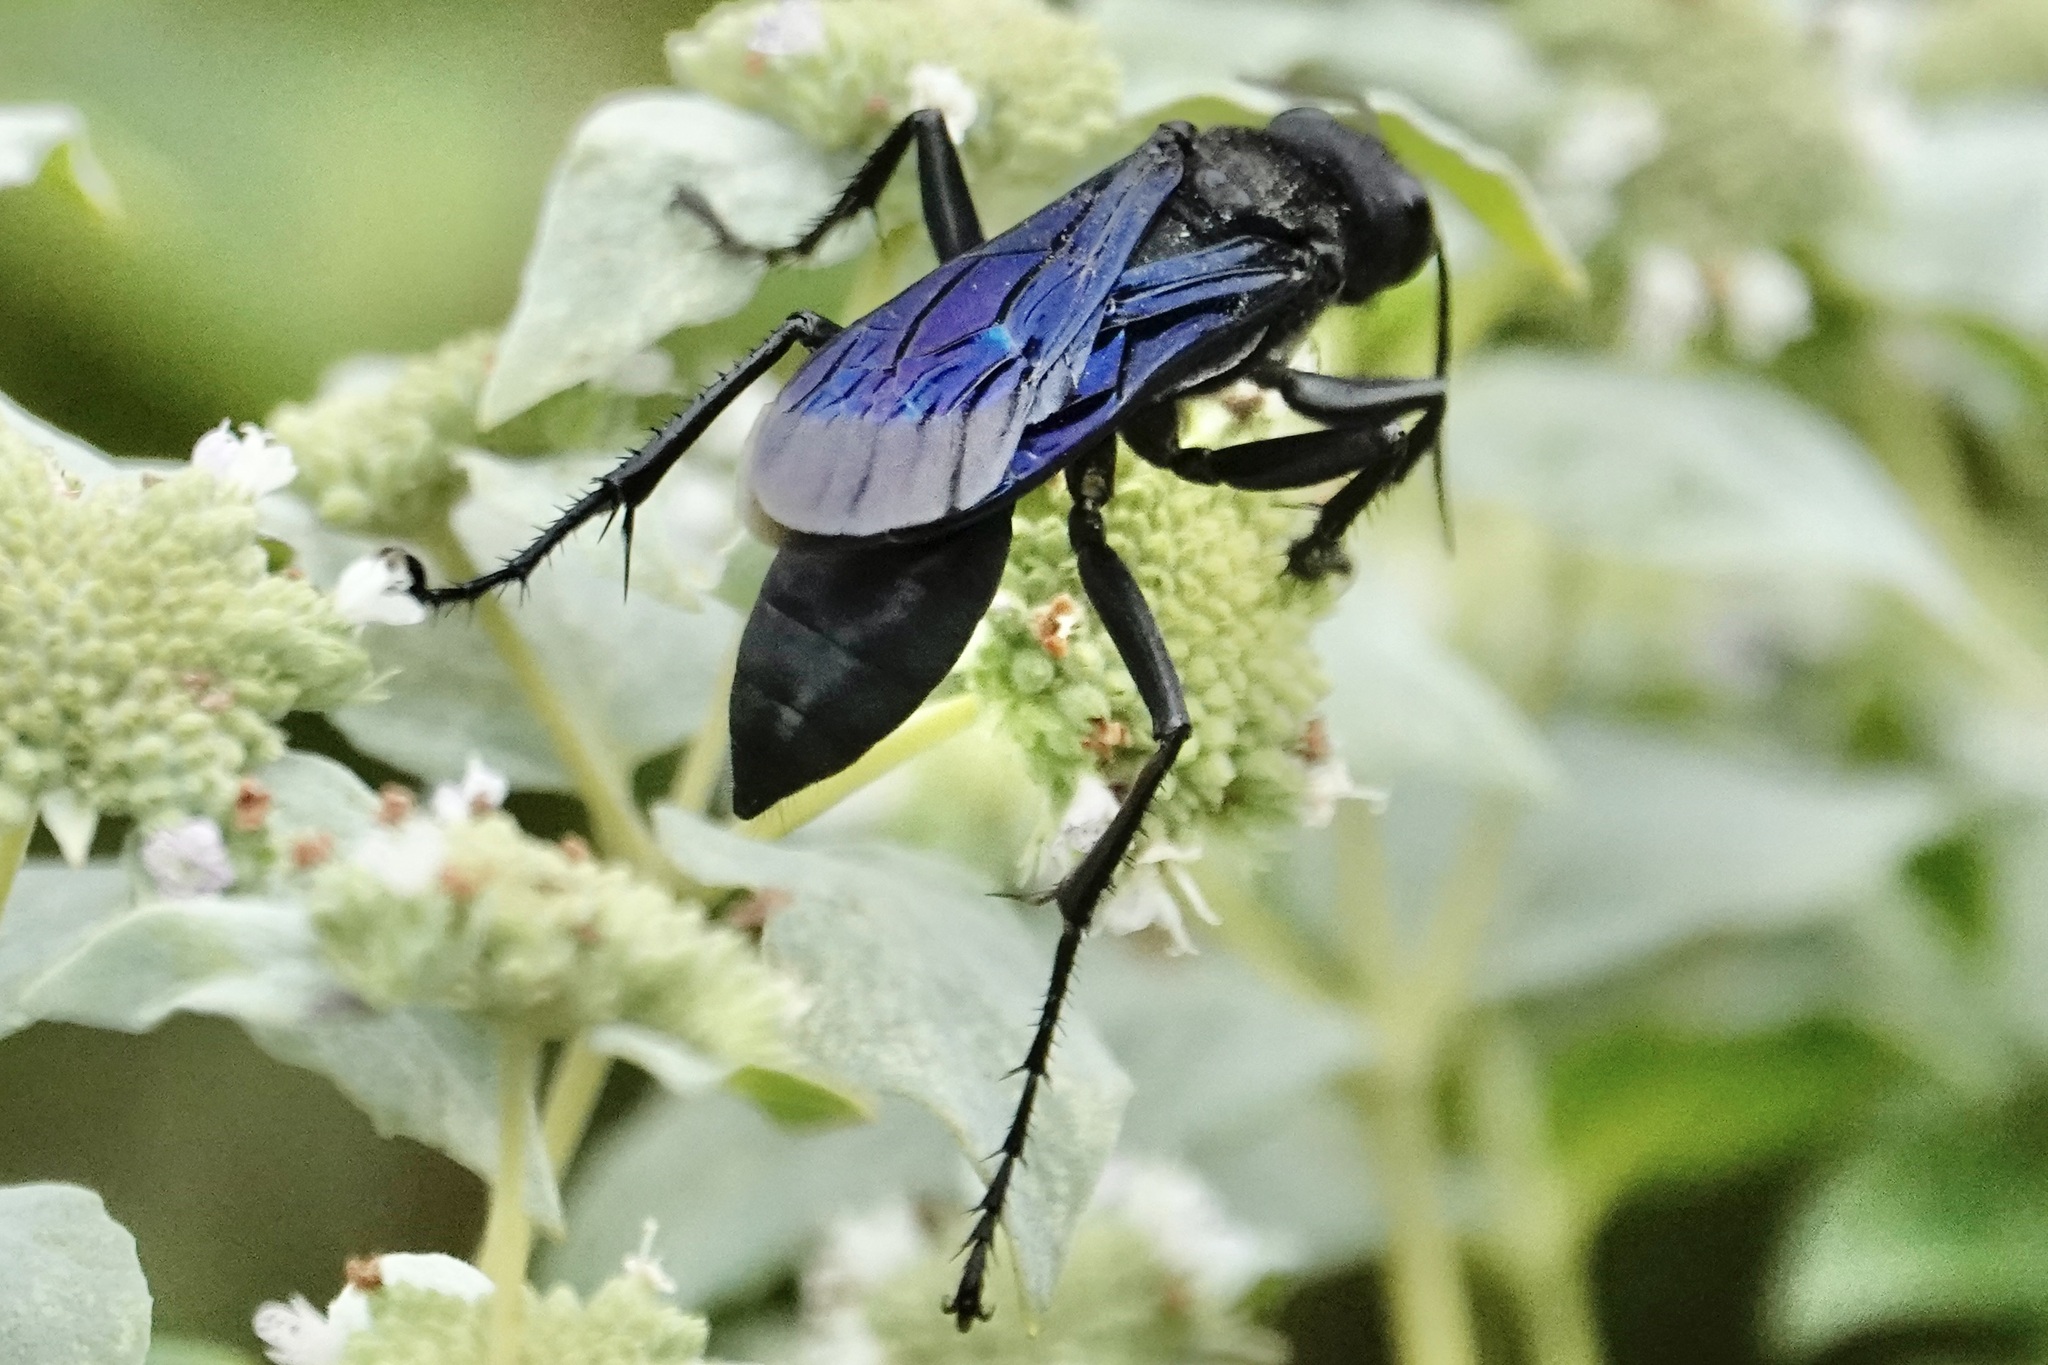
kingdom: Animalia
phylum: Arthropoda
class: Insecta
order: Hymenoptera
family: Sphecidae
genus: Sphex
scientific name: Sphex pensylvanicus
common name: Great black digger wasp
